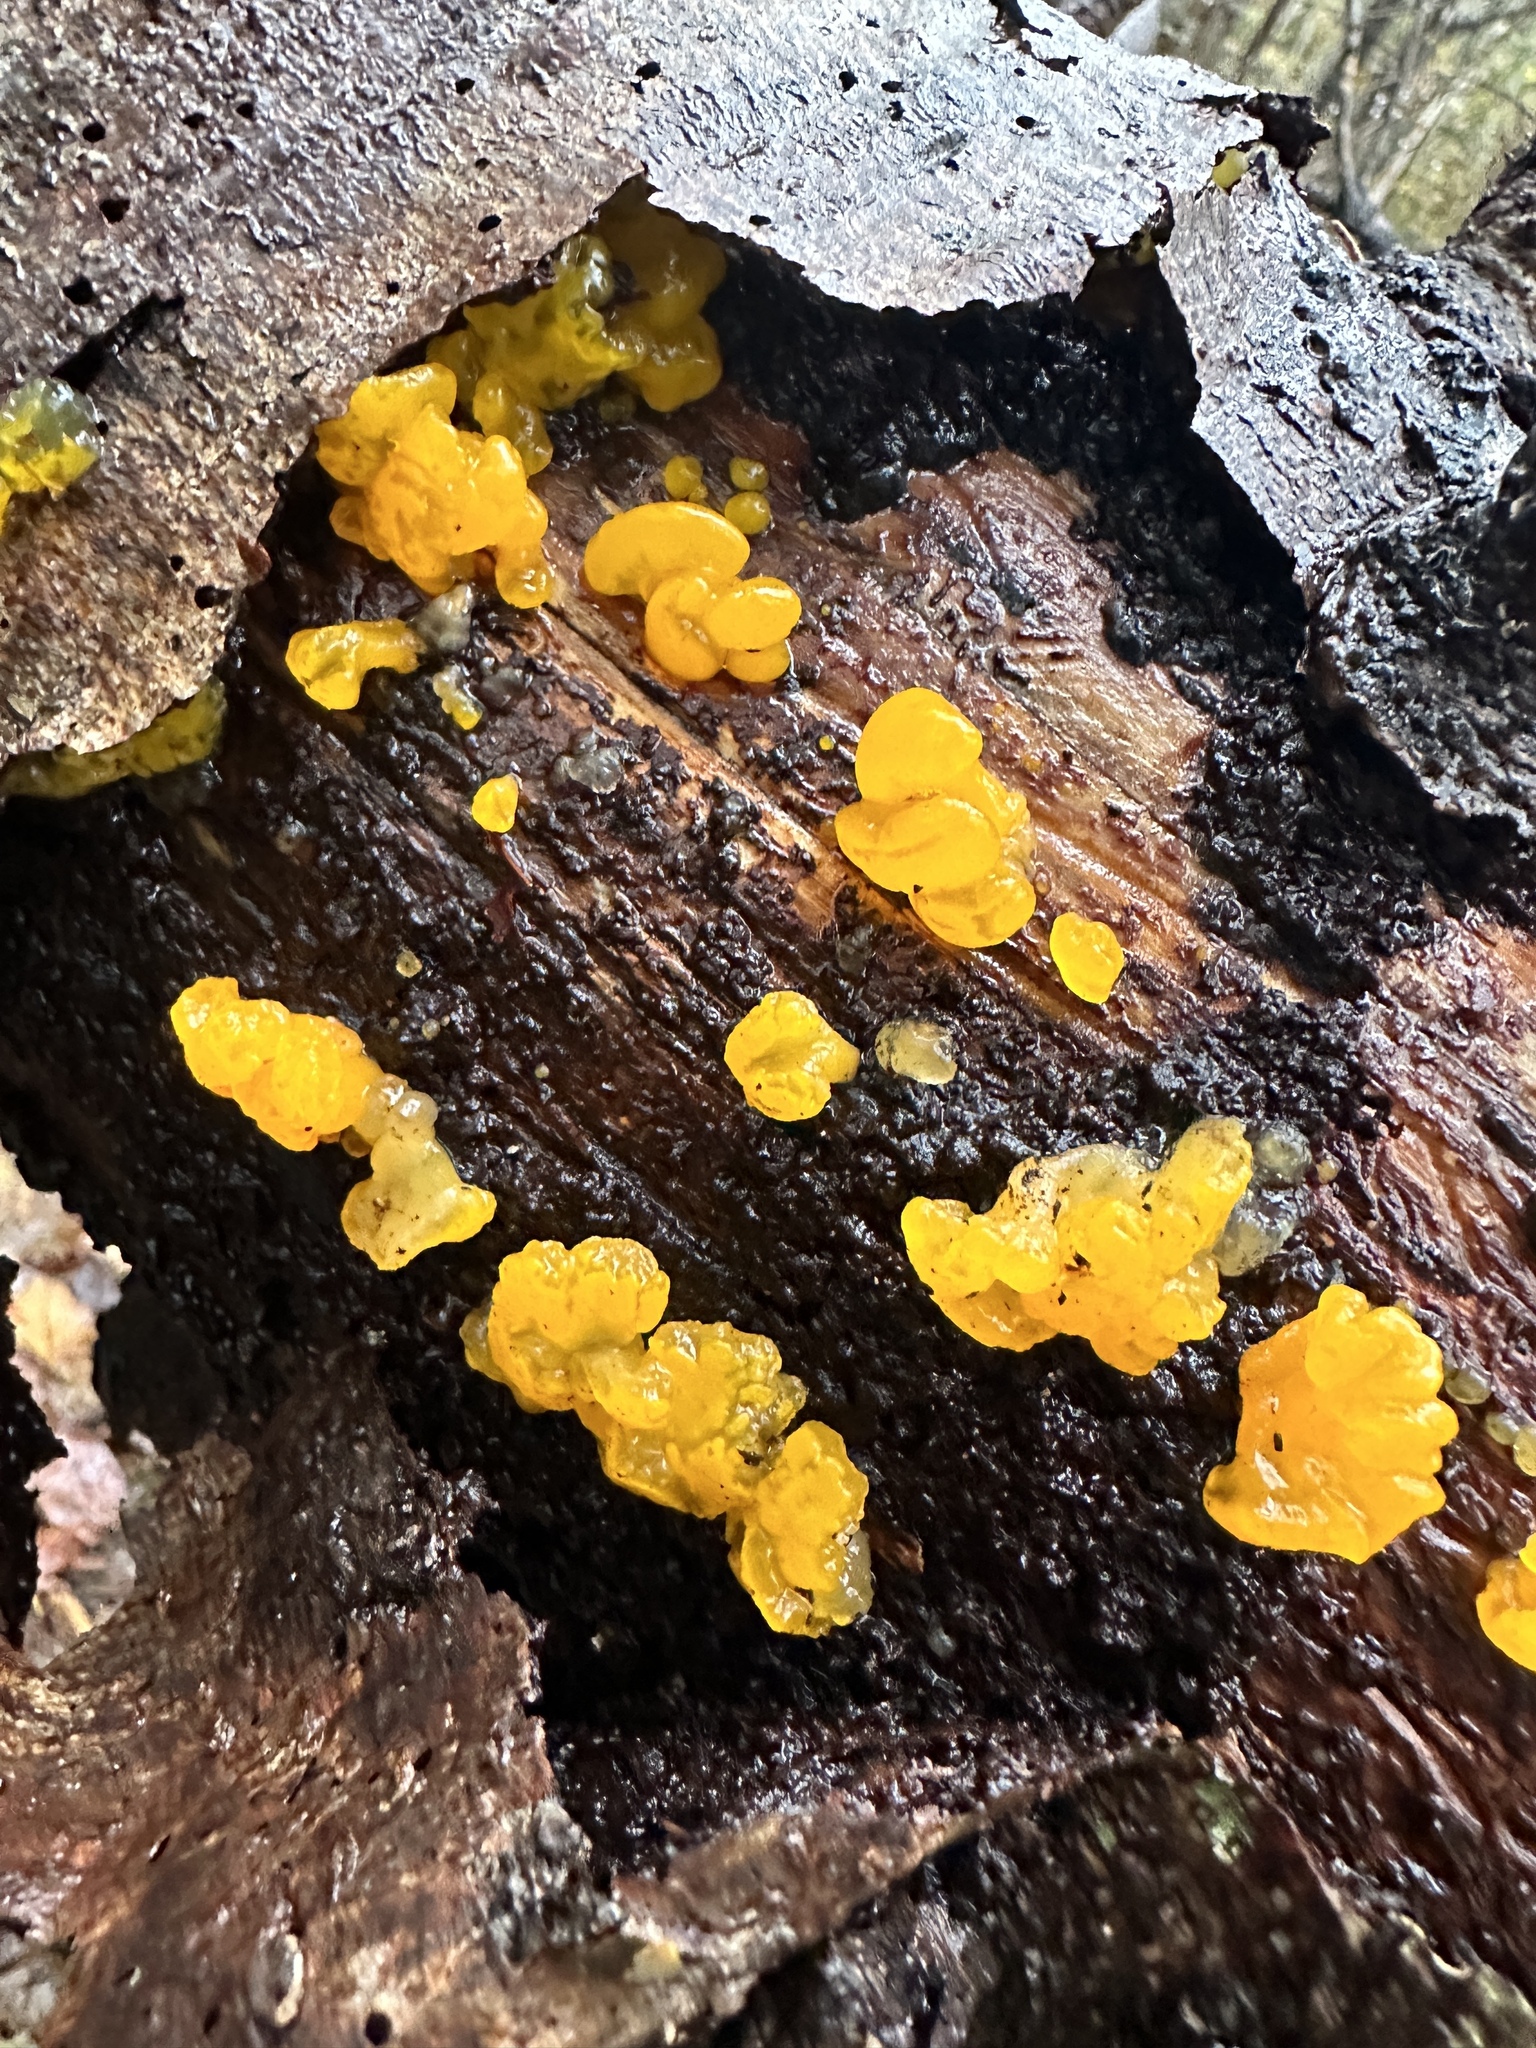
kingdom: Fungi
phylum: Basidiomycota
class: Dacrymycetes
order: Dacrymycetales
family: Dacrymycetaceae
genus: Dacrymyces
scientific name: Dacrymyces chrysospermus
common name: Orange jelly spot
